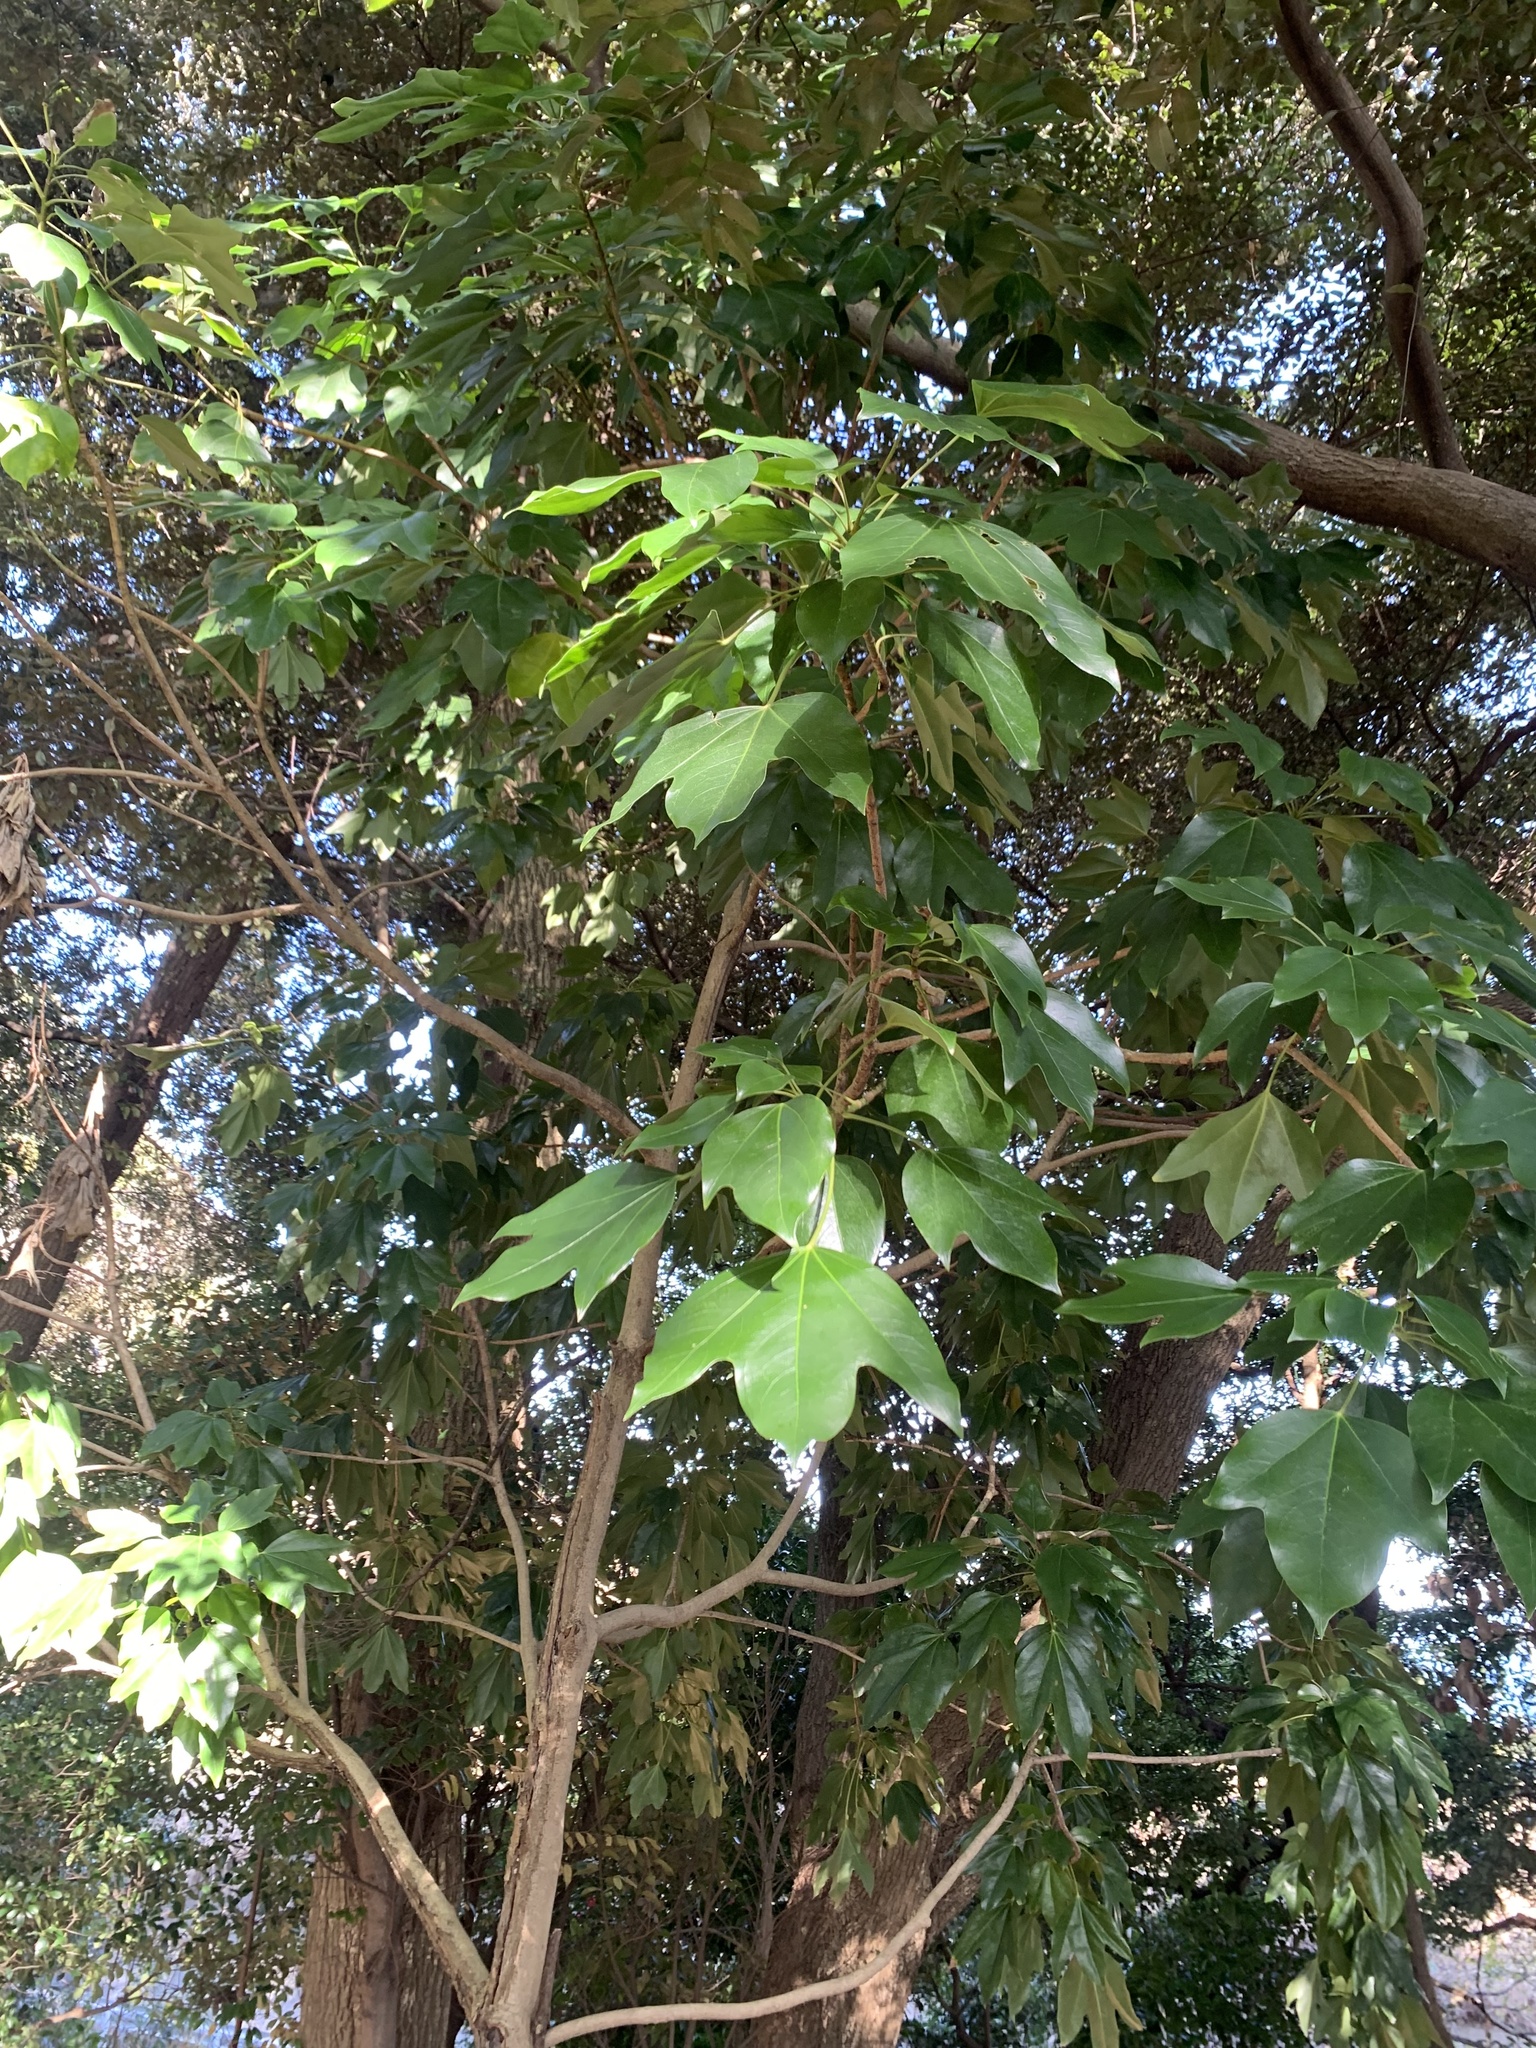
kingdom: Plantae
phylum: Tracheophyta
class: Magnoliopsida
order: Apiales
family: Araliaceae
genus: Dendropanax
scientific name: Dendropanax trifidus
